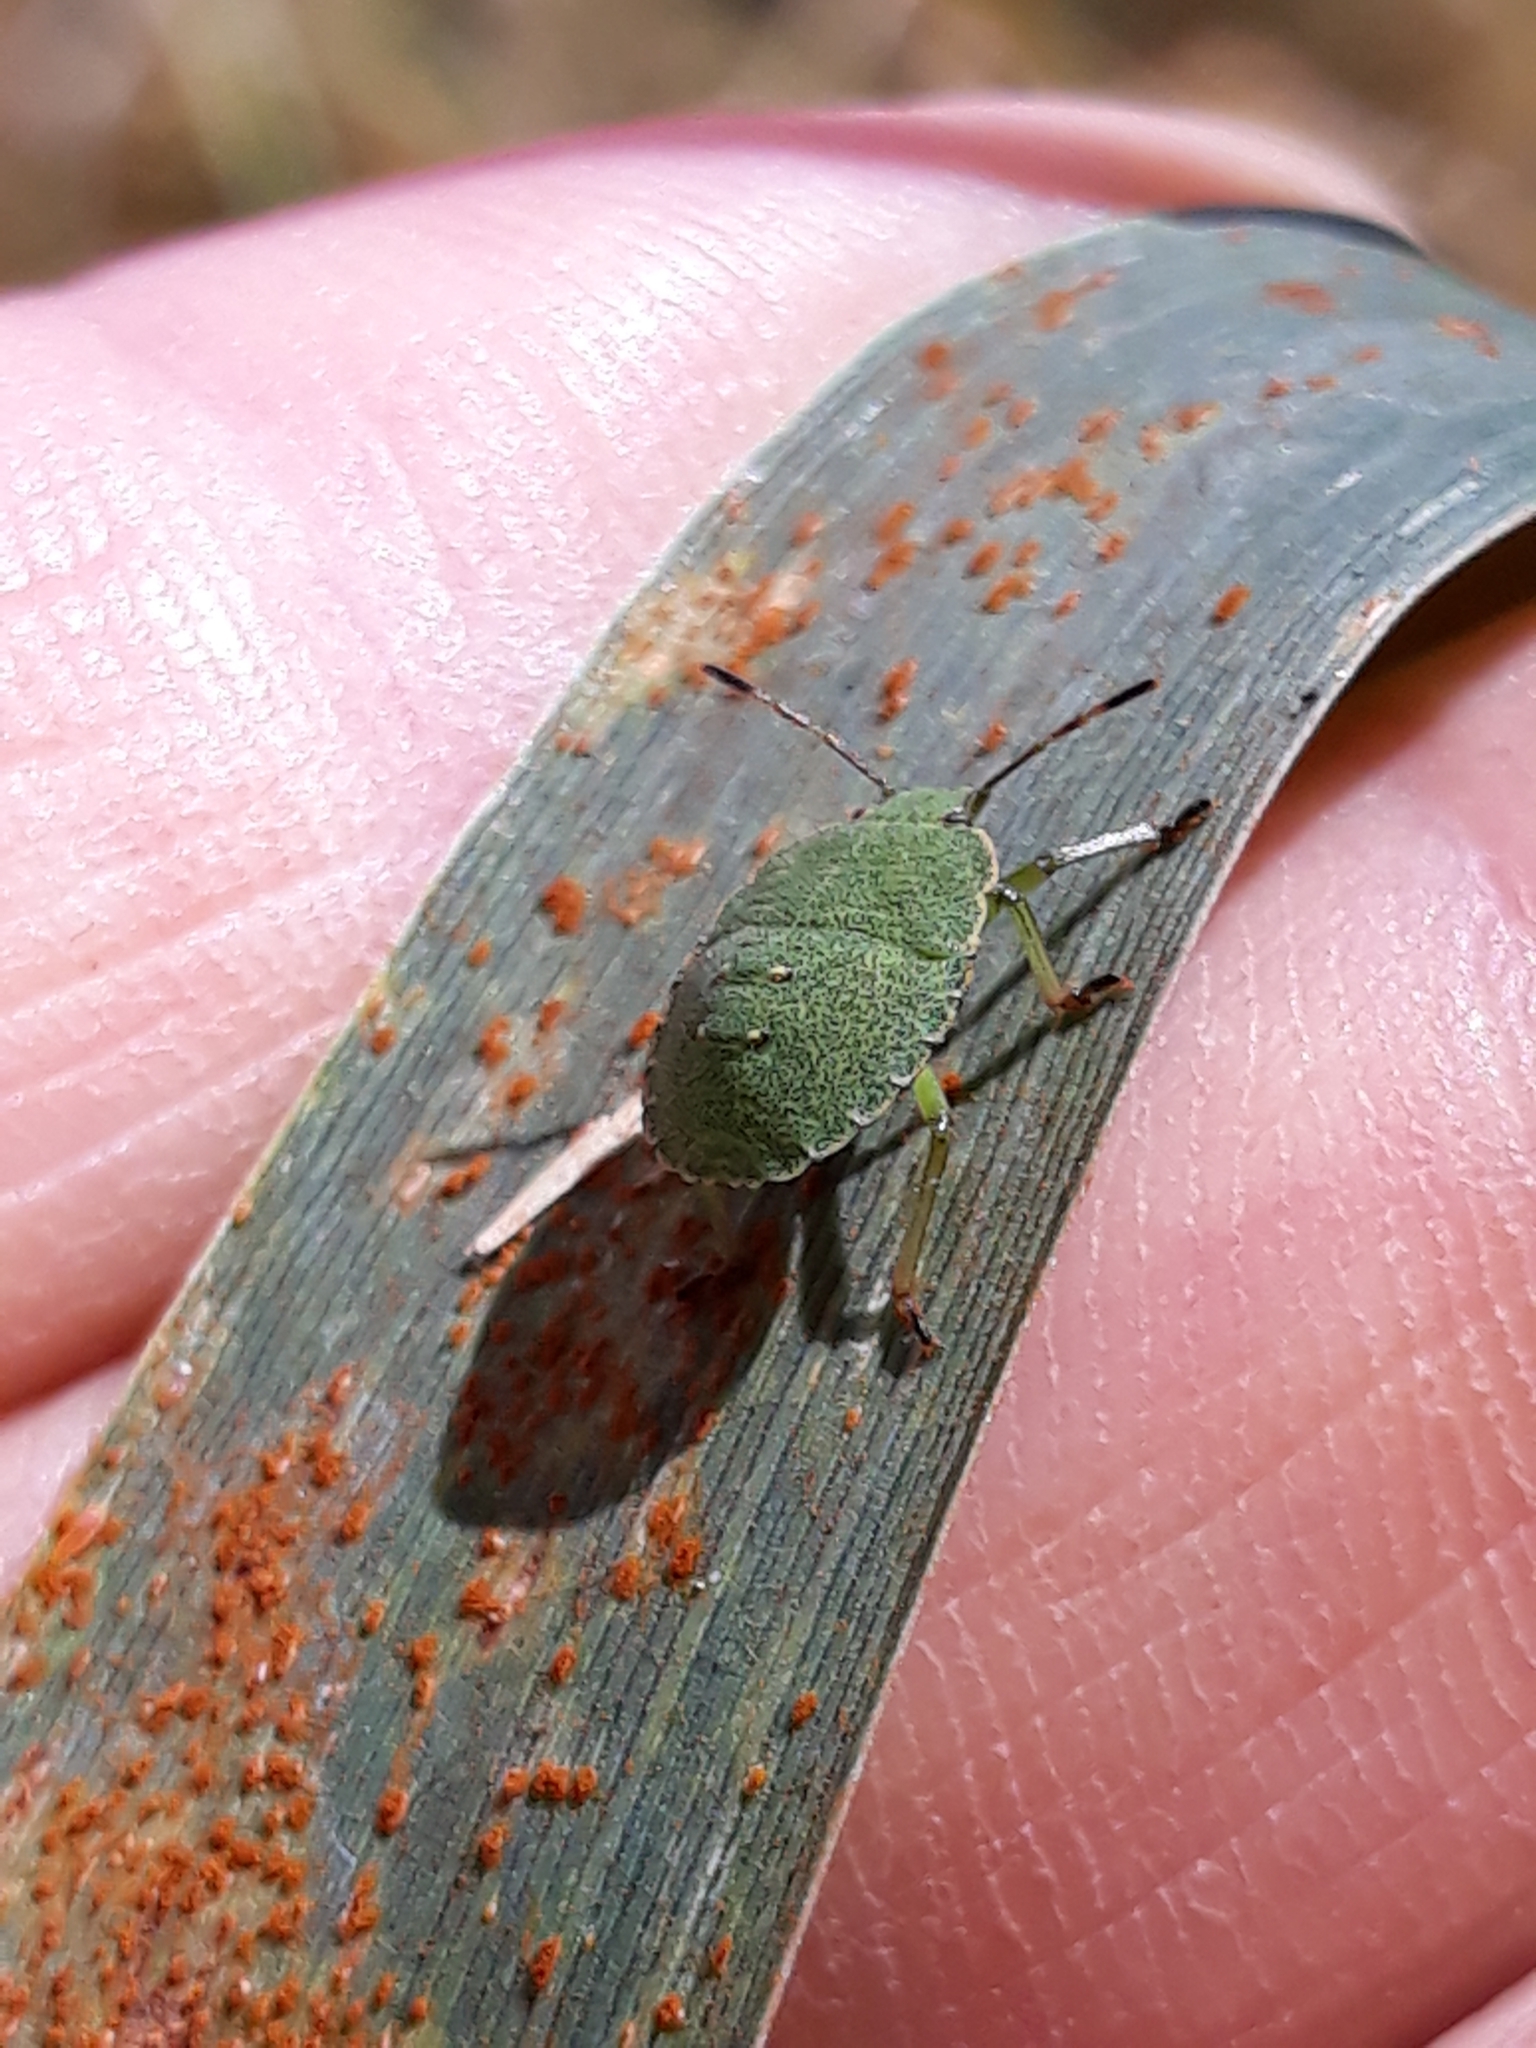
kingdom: Animalia
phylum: Arthropoda
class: Insecta
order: Hemiptera
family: Pentatomidae
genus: Palomena
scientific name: Palomena prasina
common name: Green shieldbug
